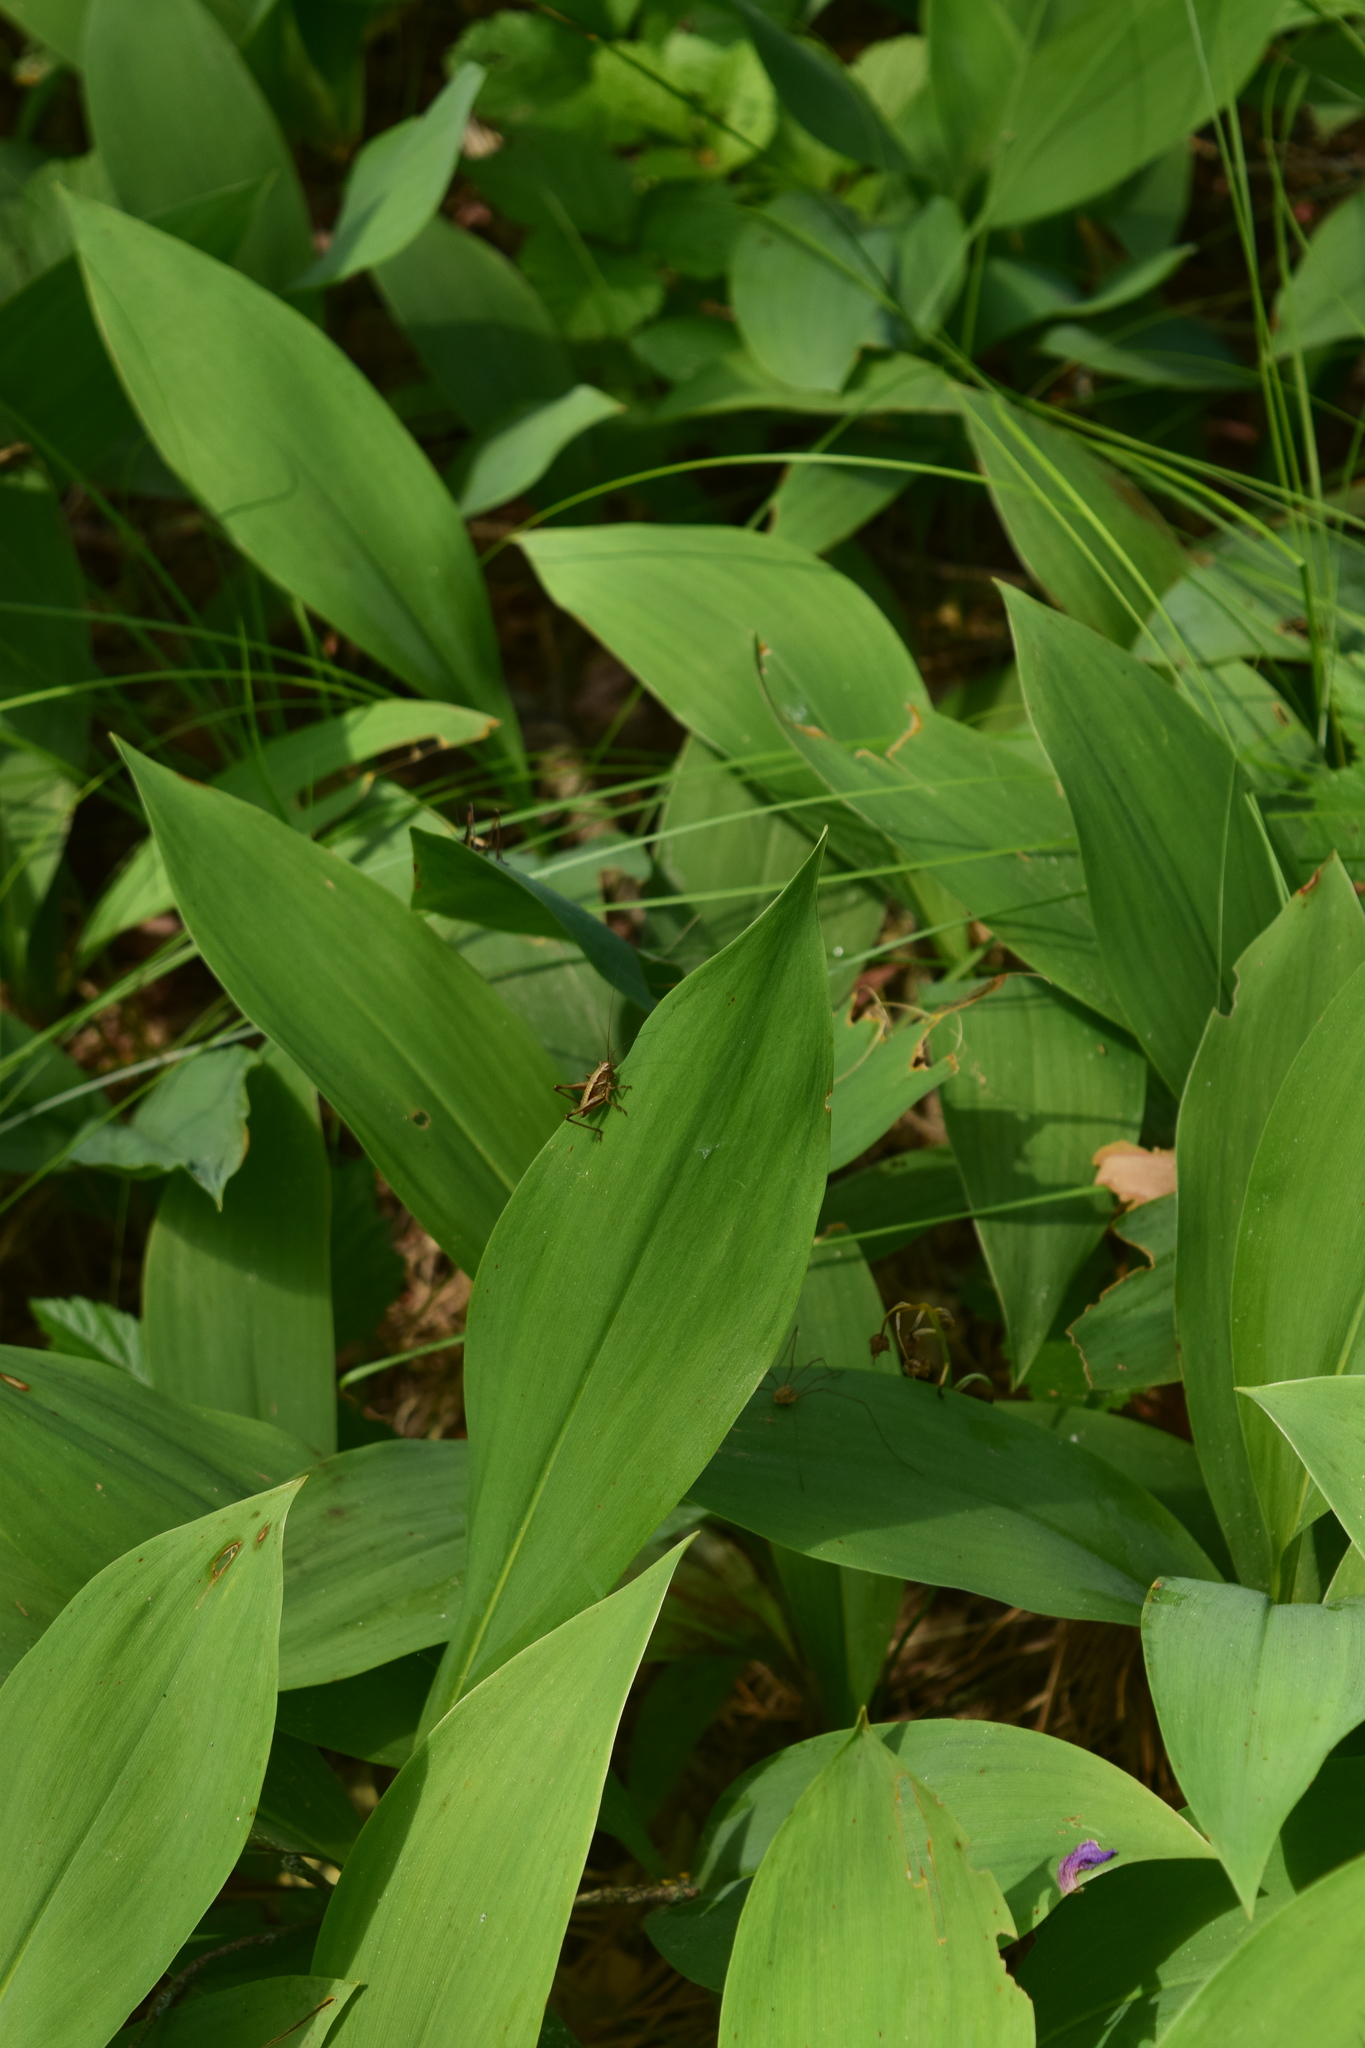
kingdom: Plantae
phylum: Tracheophyta
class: Liliopsida
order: Asparagales
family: Asparagaceae
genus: Convallaria
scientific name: Convallaria majalis
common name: Lily-of-the-valley
